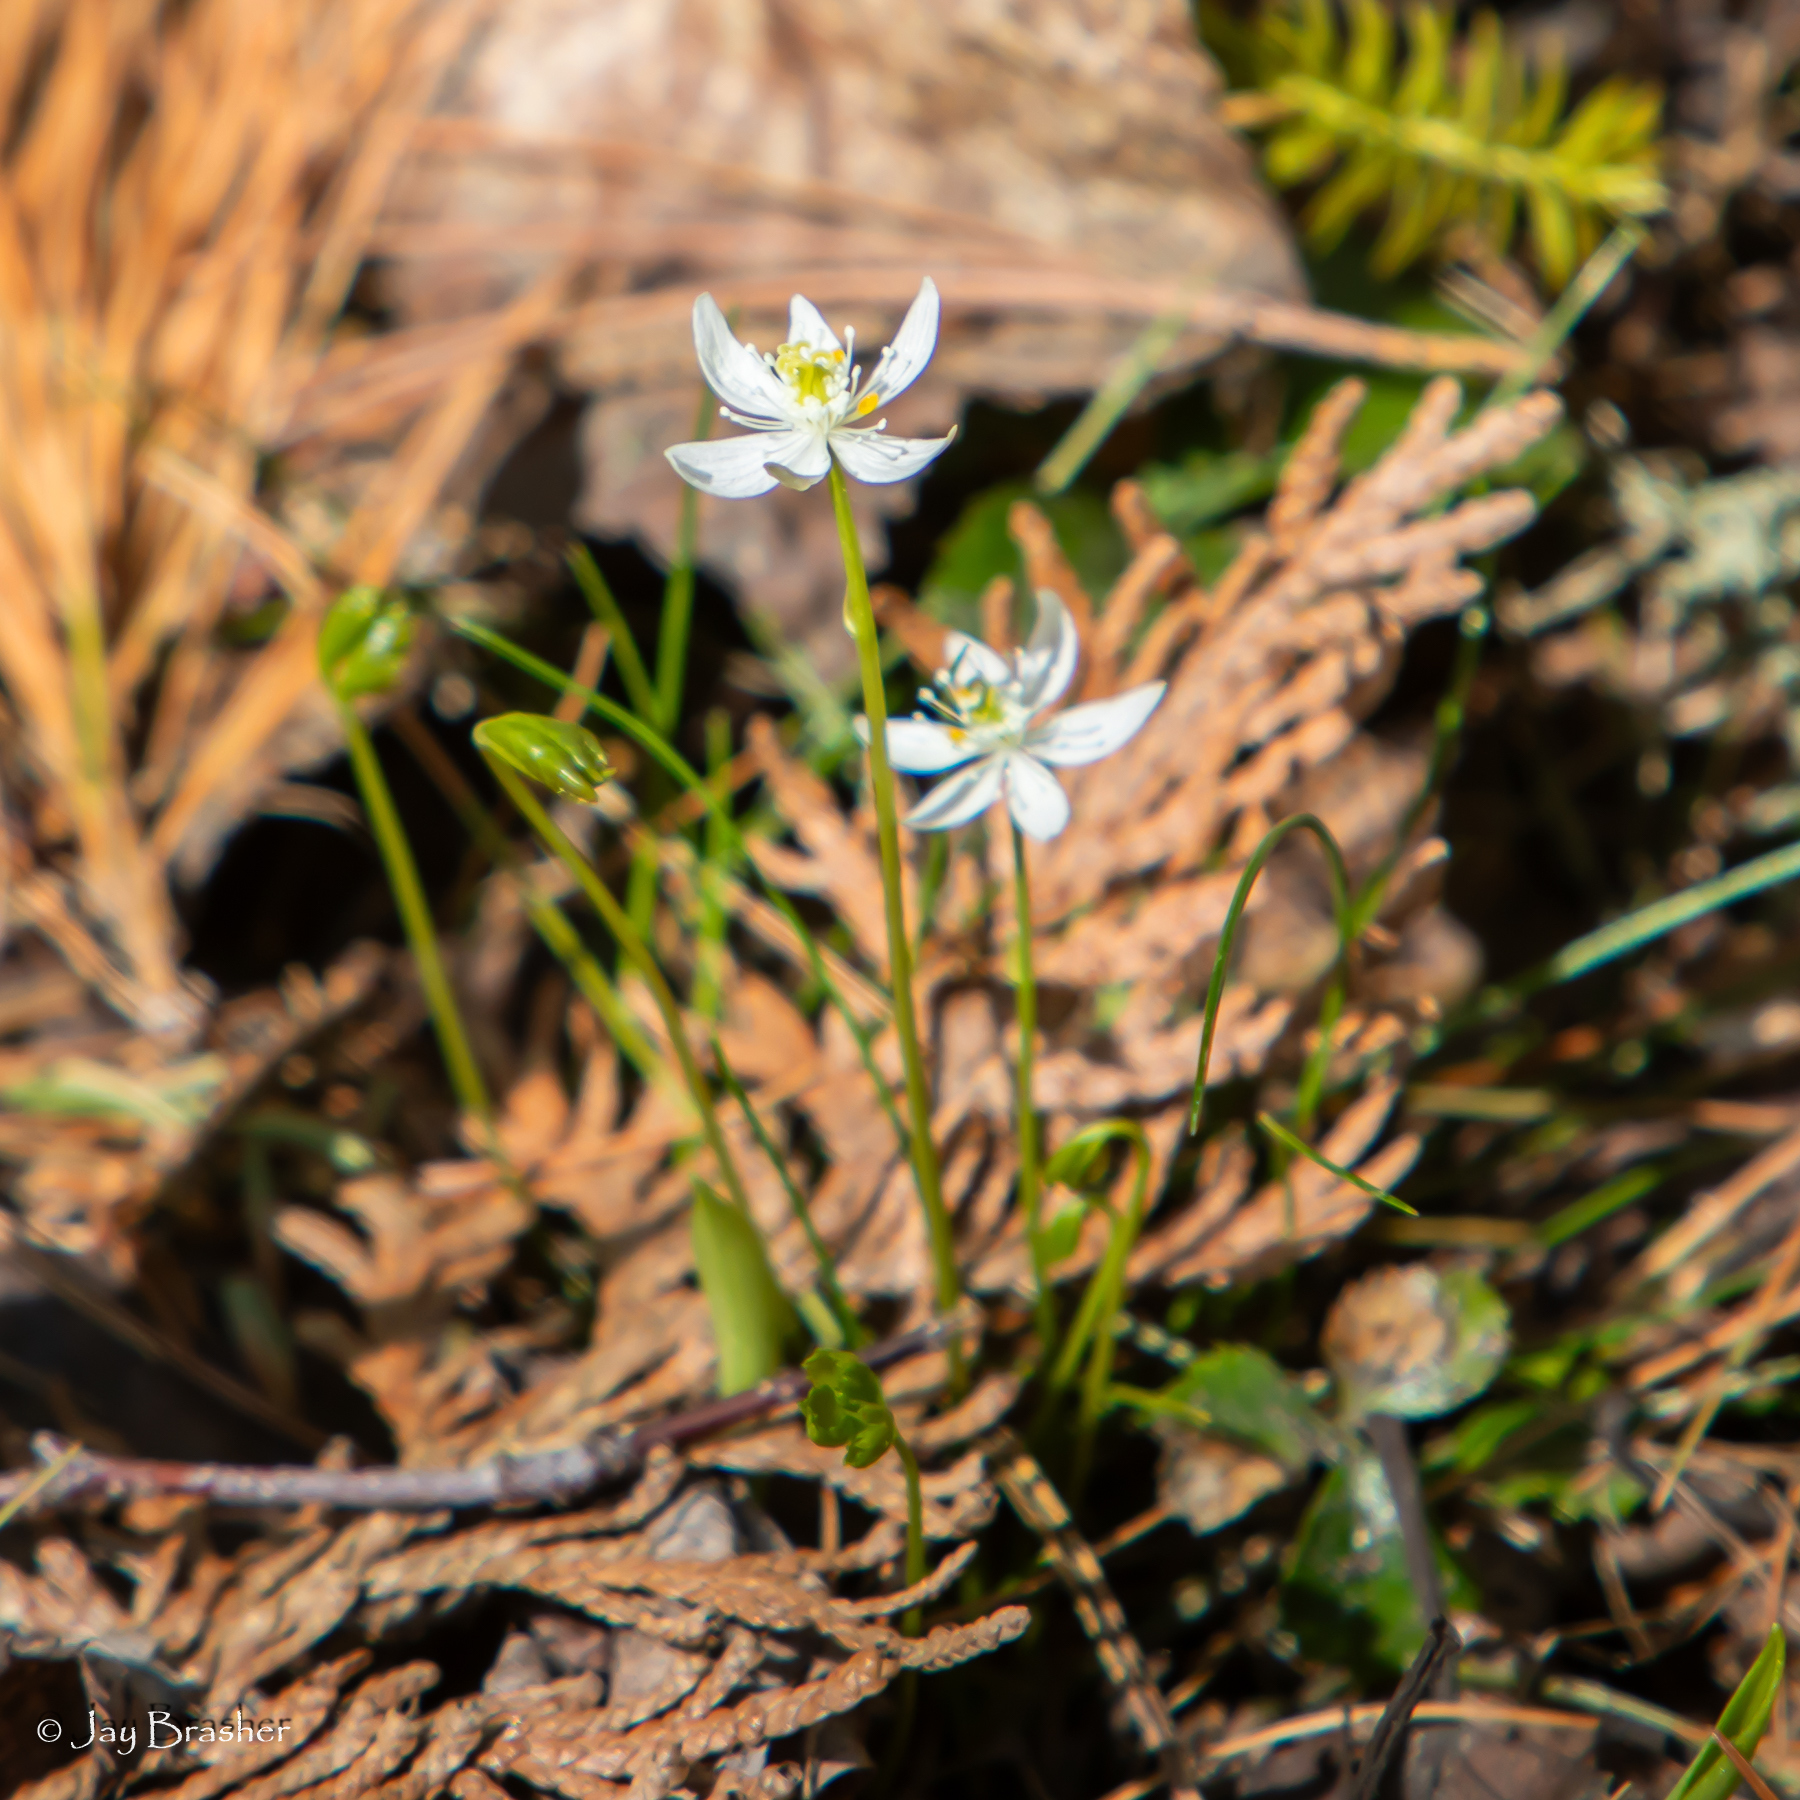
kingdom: Plantae
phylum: Tracheophyta
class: Magnoliopsida
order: Ranunculales
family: Ranunculaceae
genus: Coptis
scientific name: Coptis trifolia
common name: Canker-root
